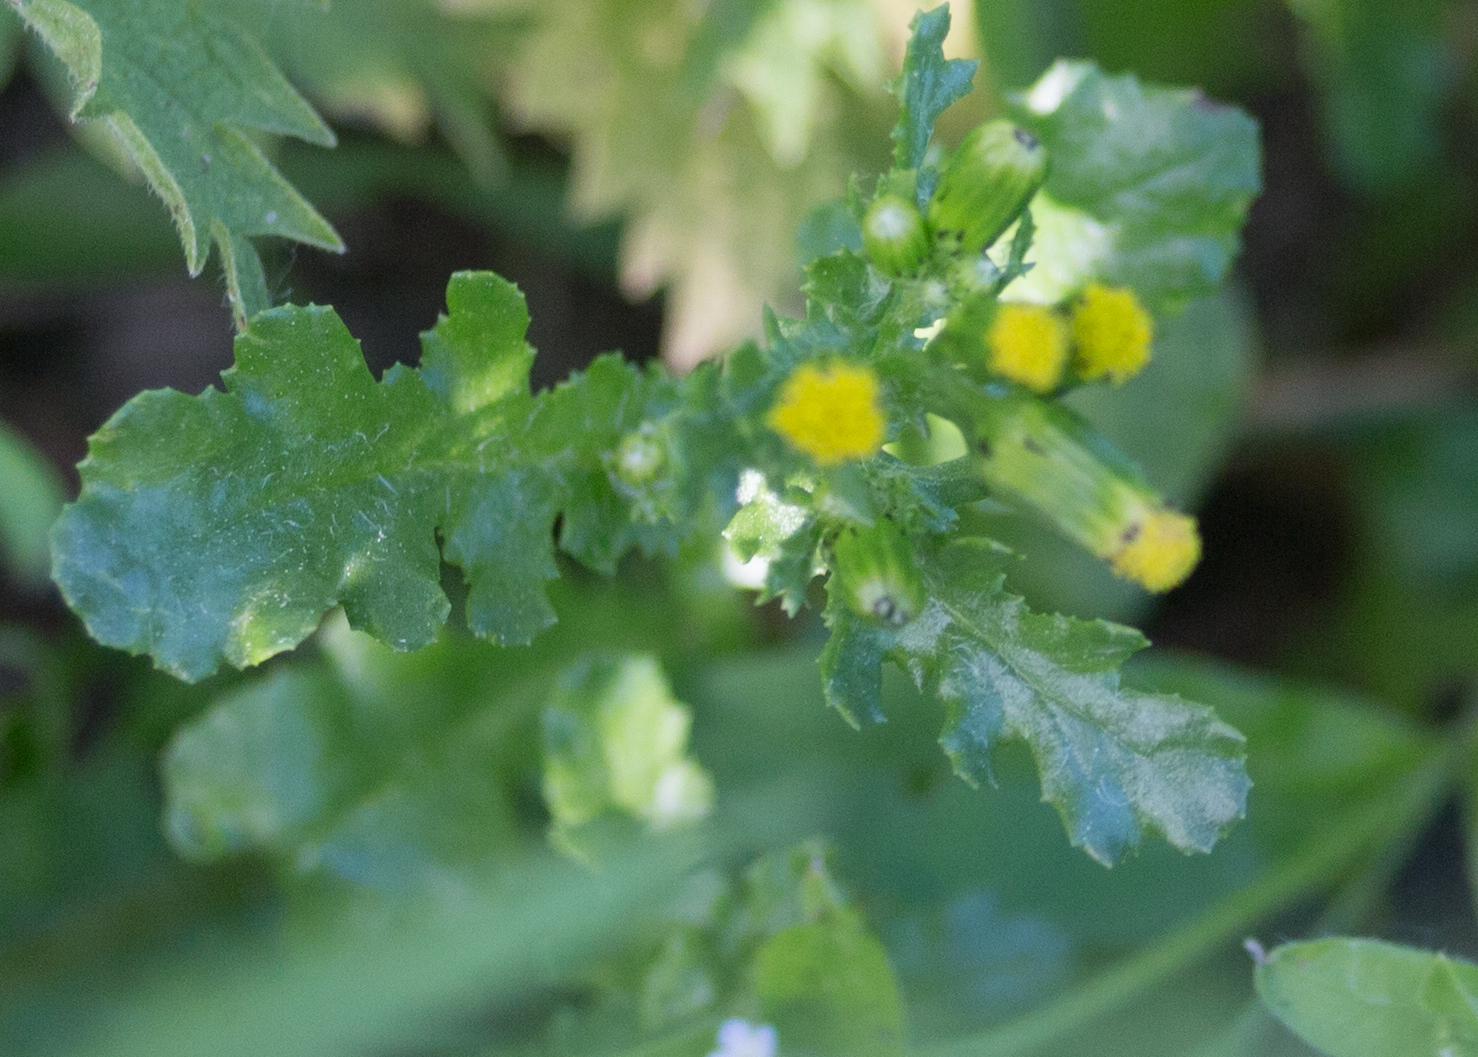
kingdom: Plantae
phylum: Tracheophyta
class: Magnoliopsida
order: Asterales
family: Asteraceae
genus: Senecio
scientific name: Senecio vulgaris
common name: Old-man-in-the-spring
